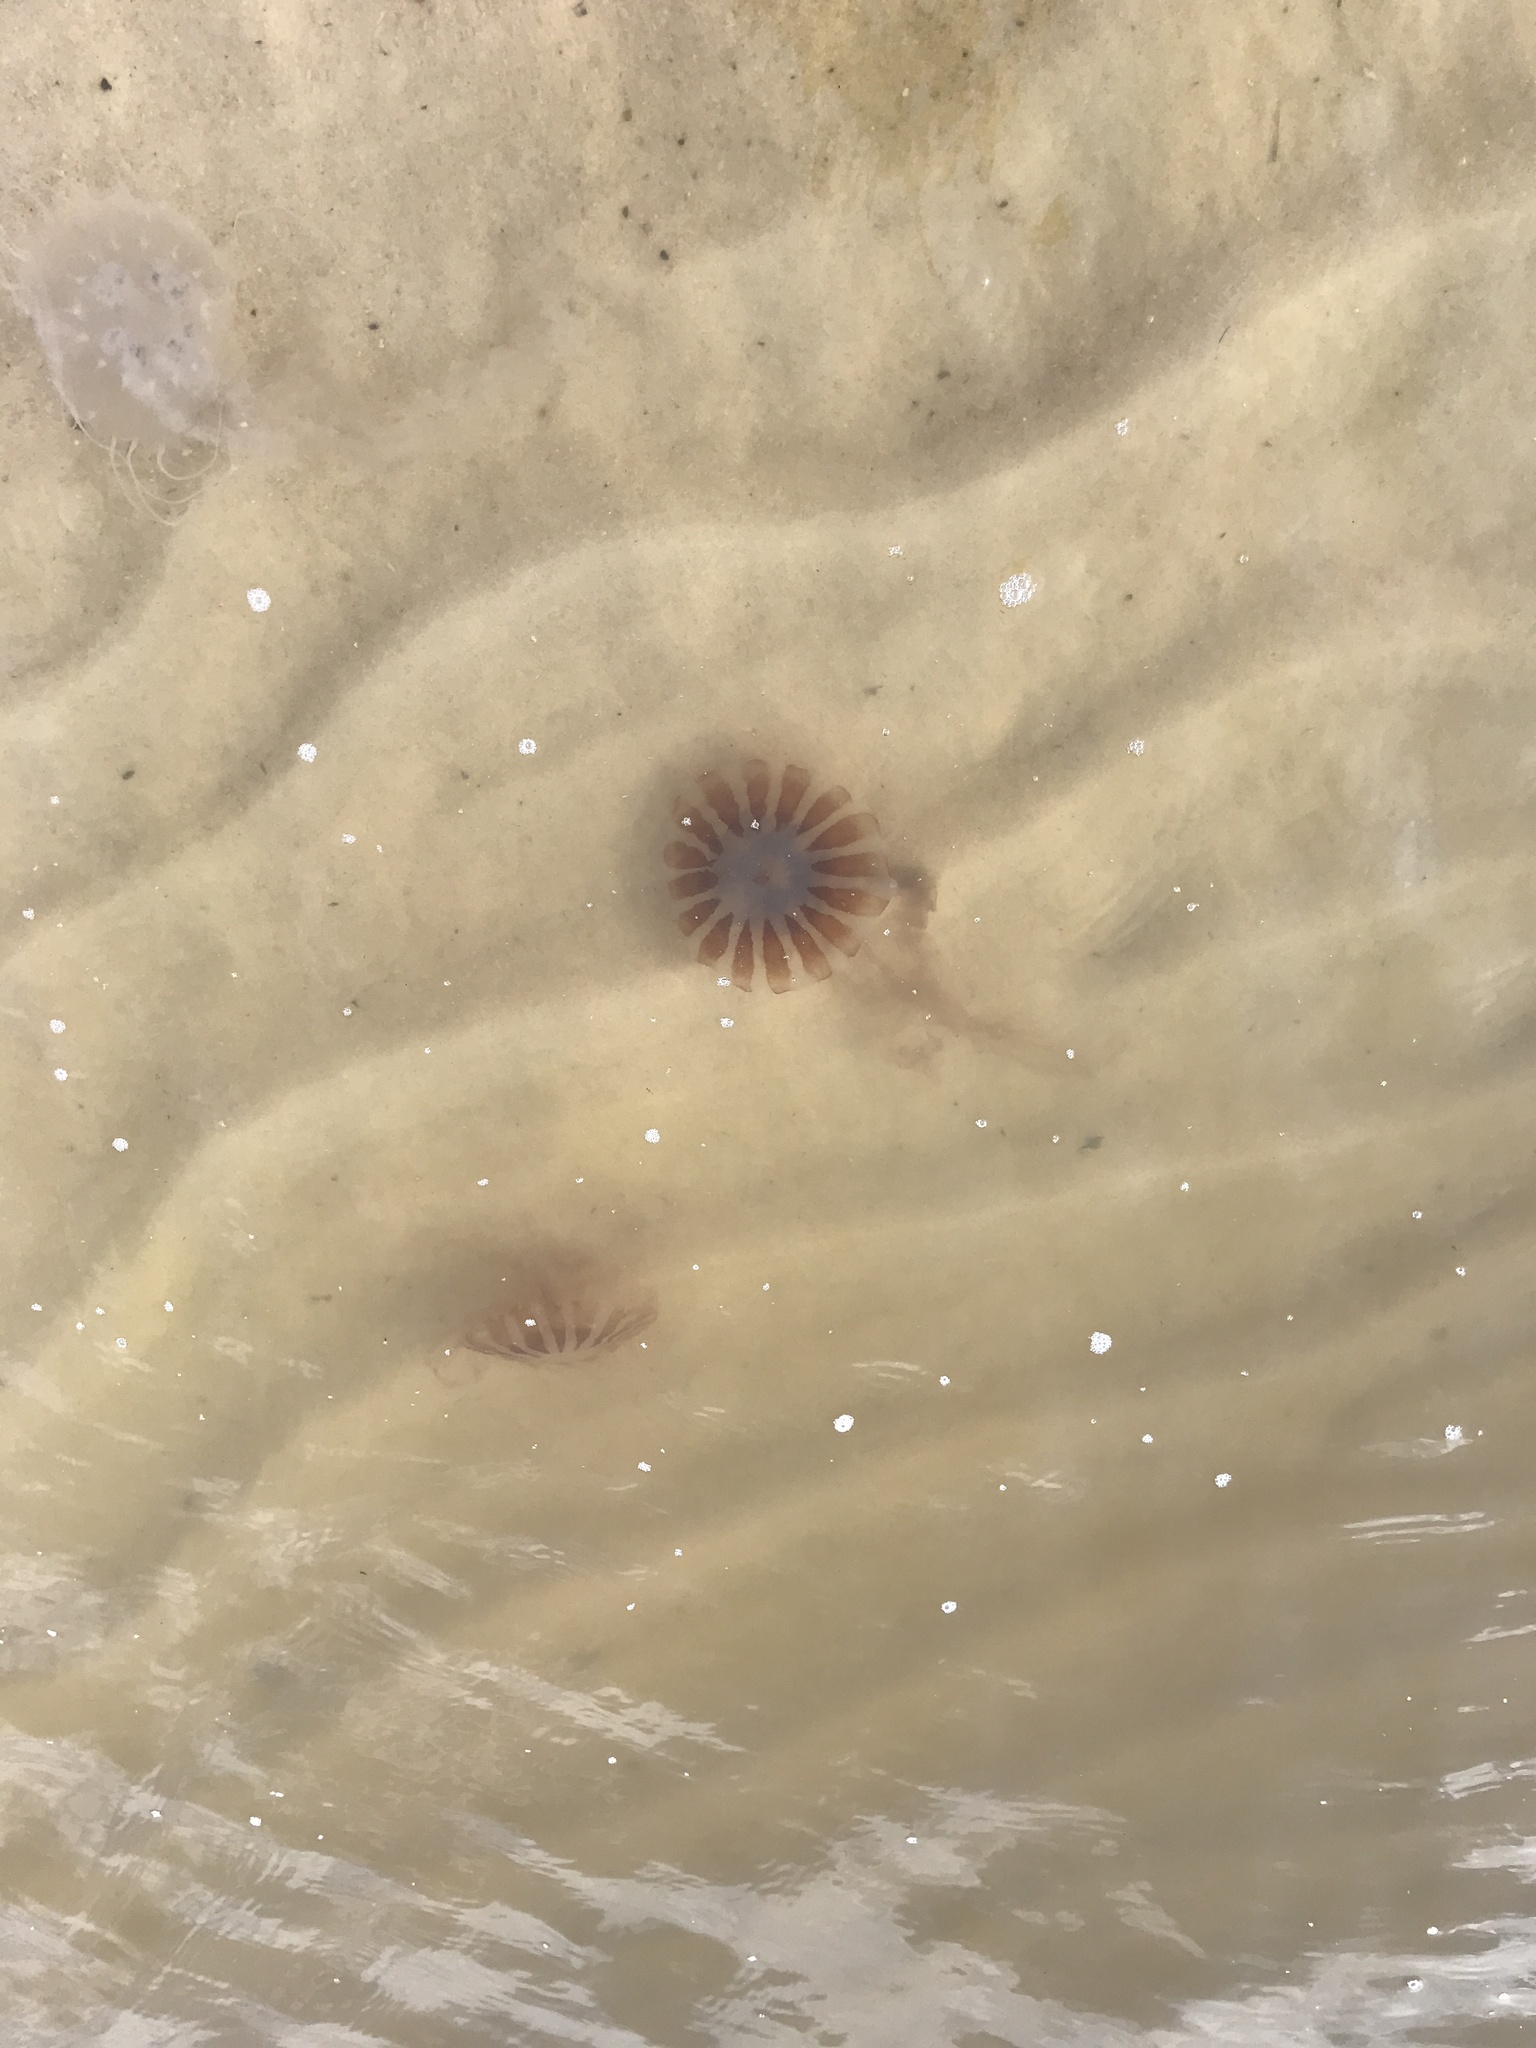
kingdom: Animalia
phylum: Cnidaria
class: Scyphozoa
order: Semaeostomeae
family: Pelagiidae
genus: Chrysaora
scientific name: Chrysaora chesapeakei
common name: Bay nettle
